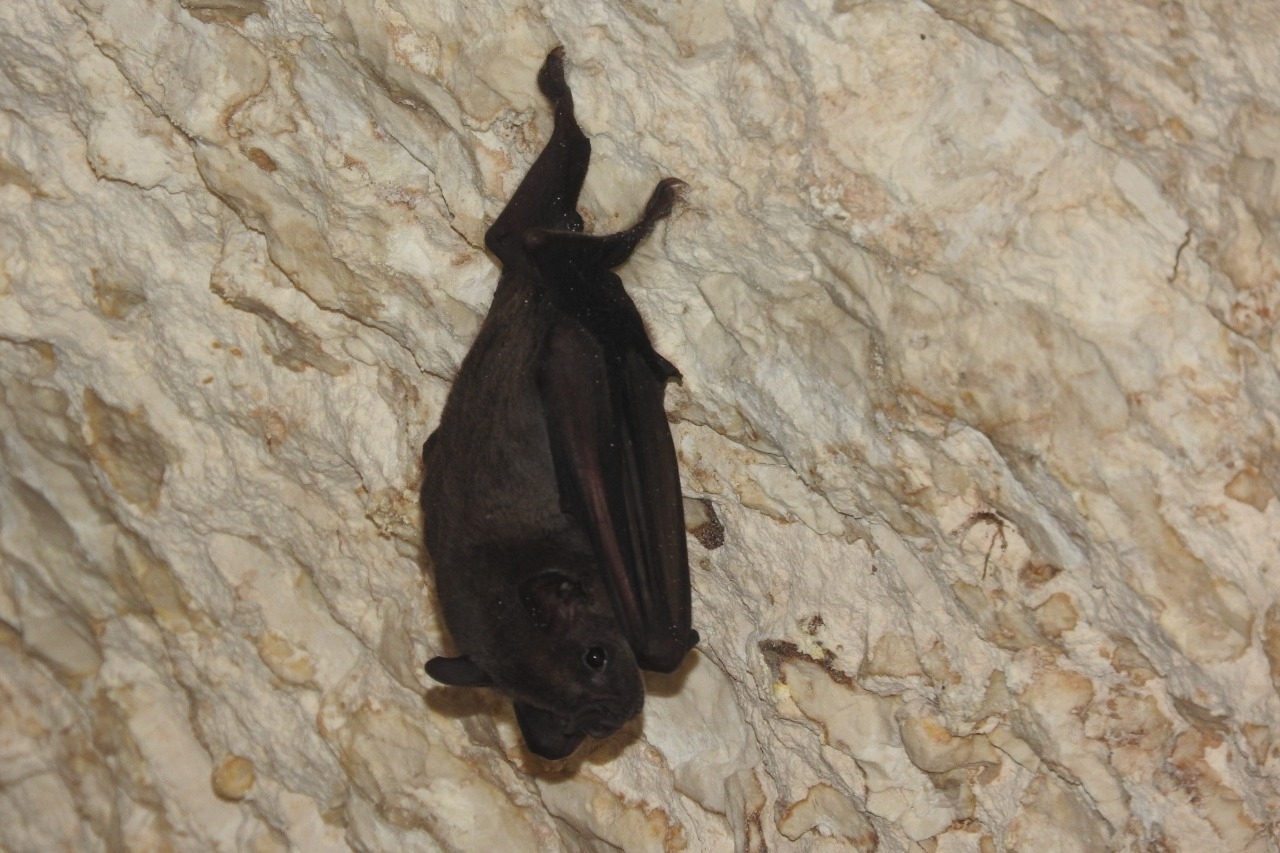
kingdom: Animalia
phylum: Chordata
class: Mammalia
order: Chiroptera
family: Phyllostomidae
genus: Artibeus
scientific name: Artibeus jamaicensis
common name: Jamaican fruit-eating bat
